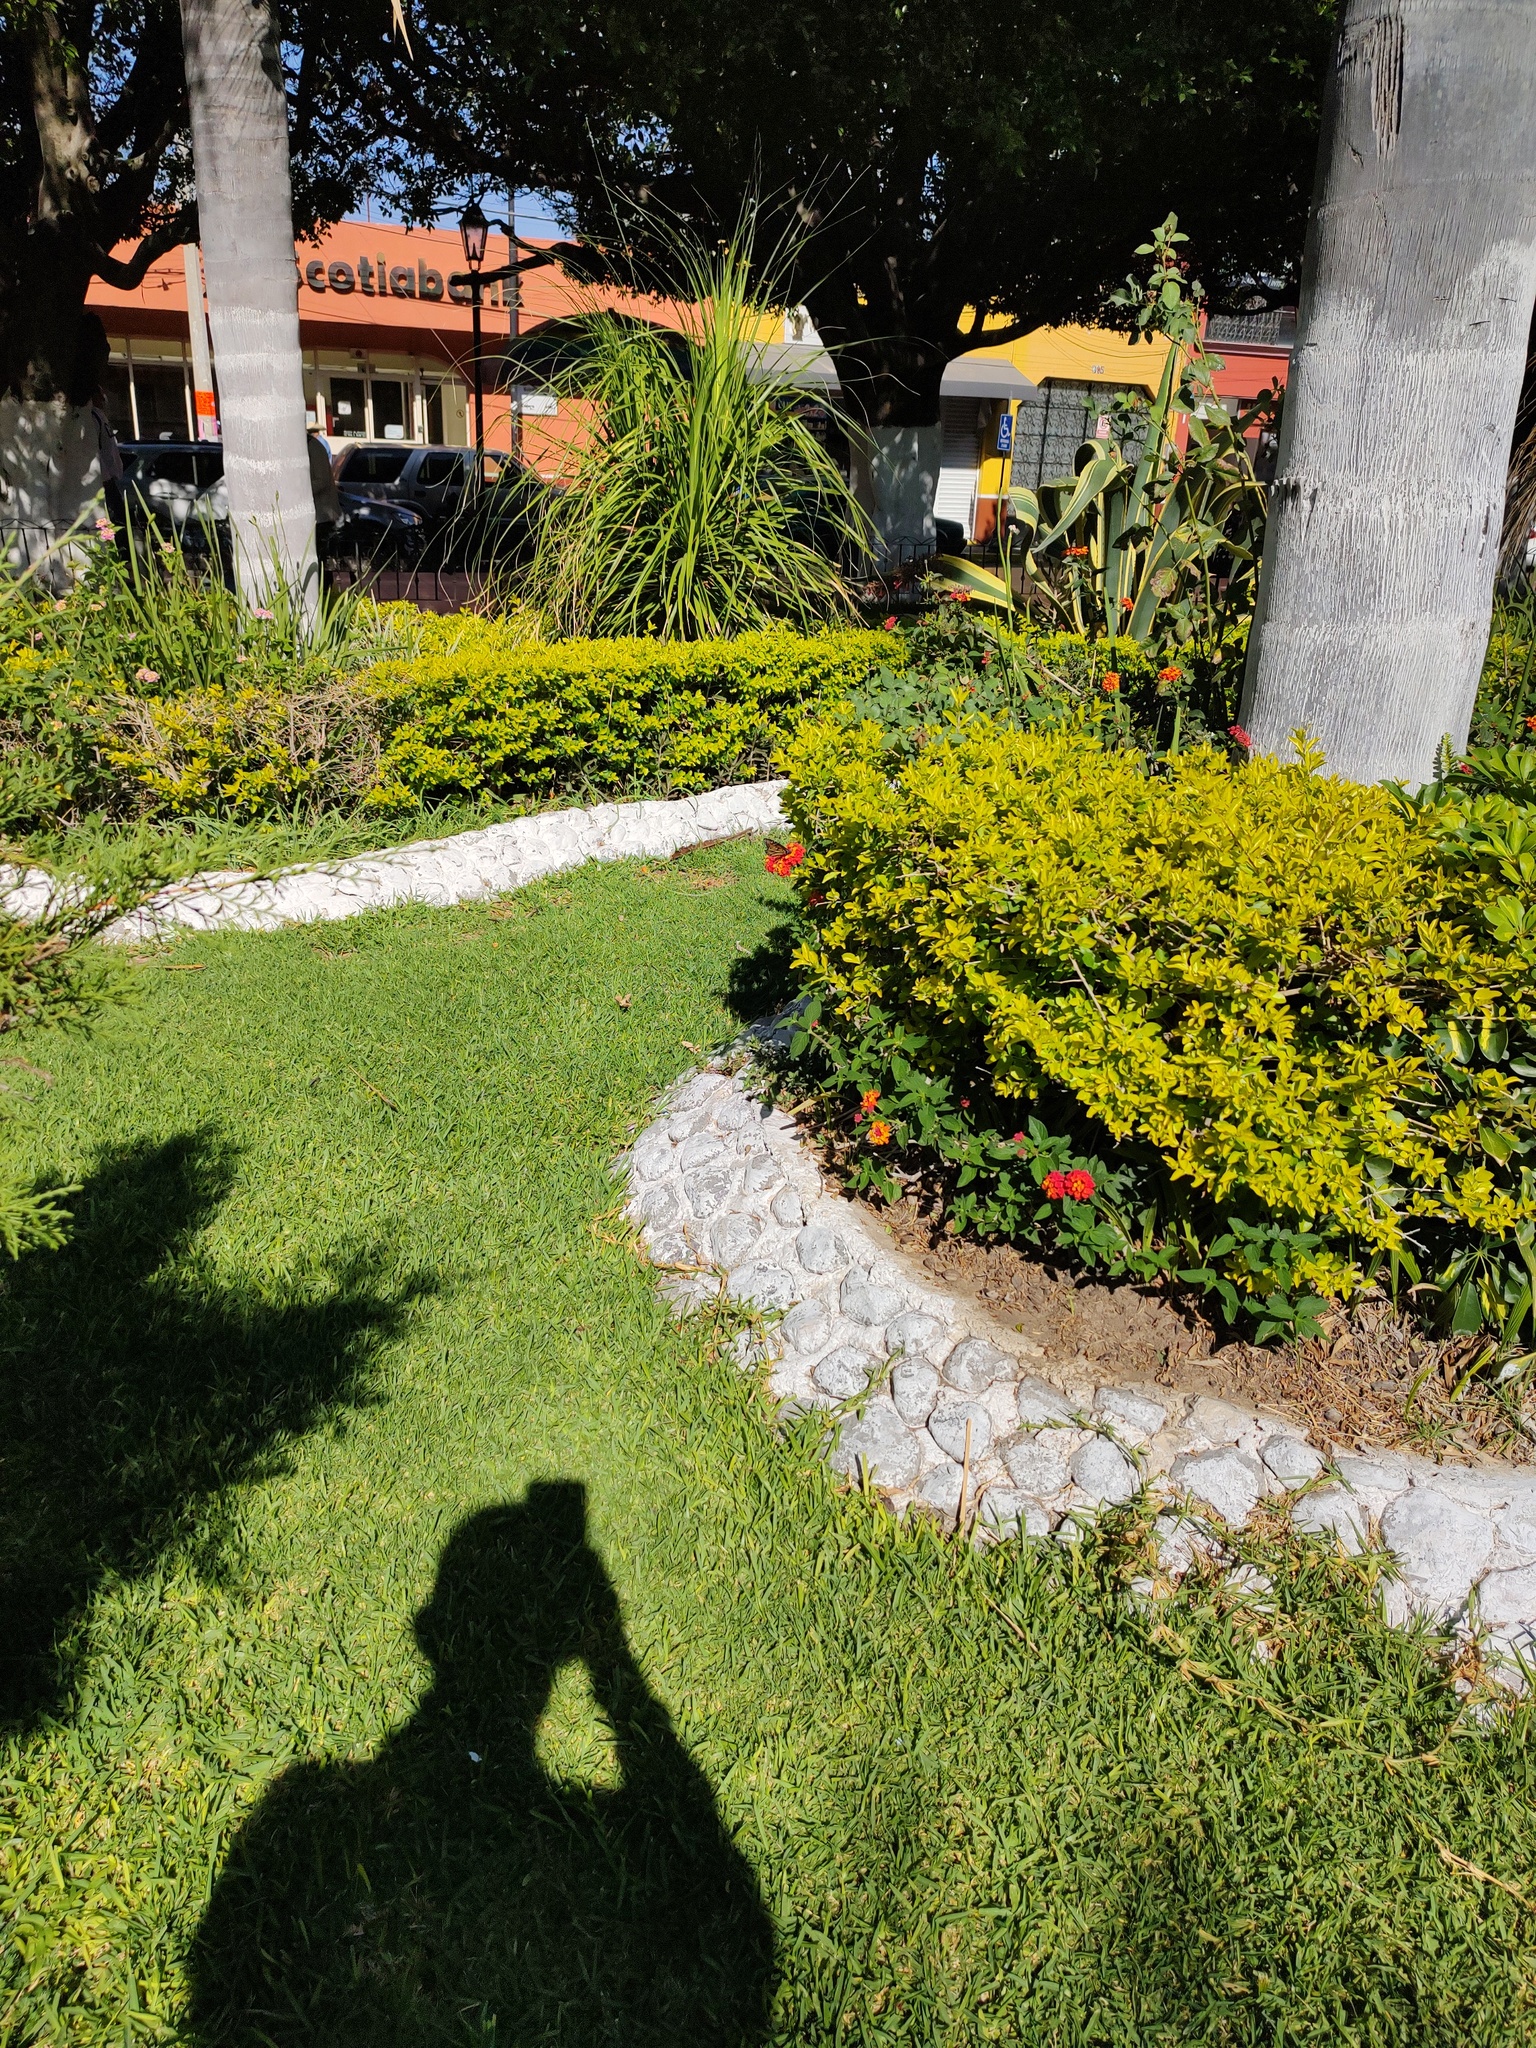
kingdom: Animalia
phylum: Arthropoda
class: Insecta
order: Lepidoptera
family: Nymphalidae
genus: Danaus
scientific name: Danaus plexippus
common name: Monarch
